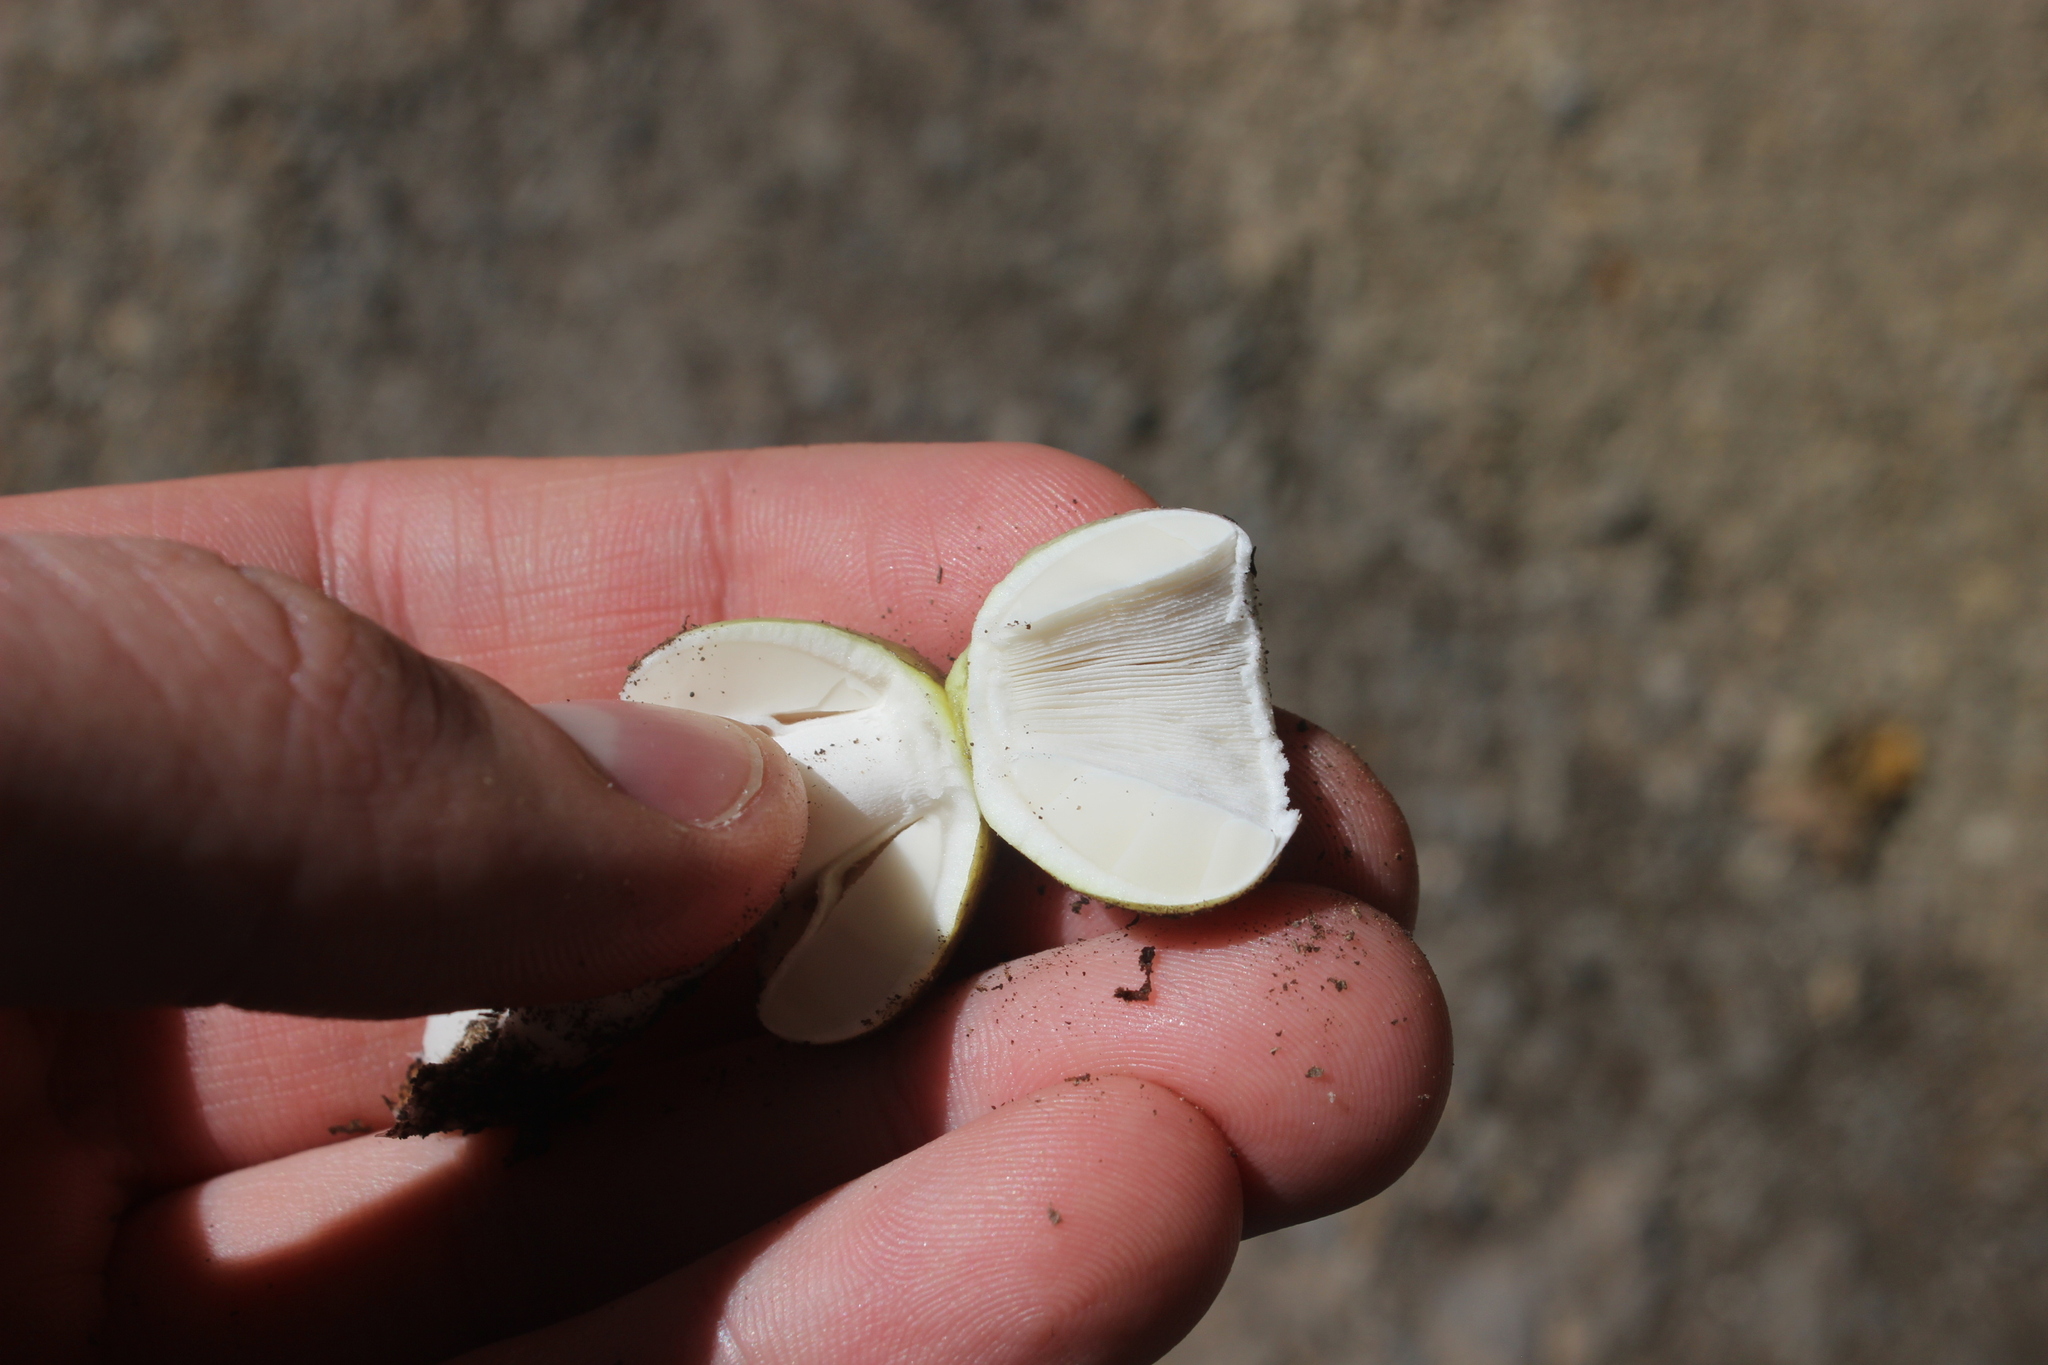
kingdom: Fungi
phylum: Basidiomycota
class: Agaricomycetes
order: Agaricales
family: Amanitaceae
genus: Amanita
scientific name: Amanita phalloides
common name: Death cap
